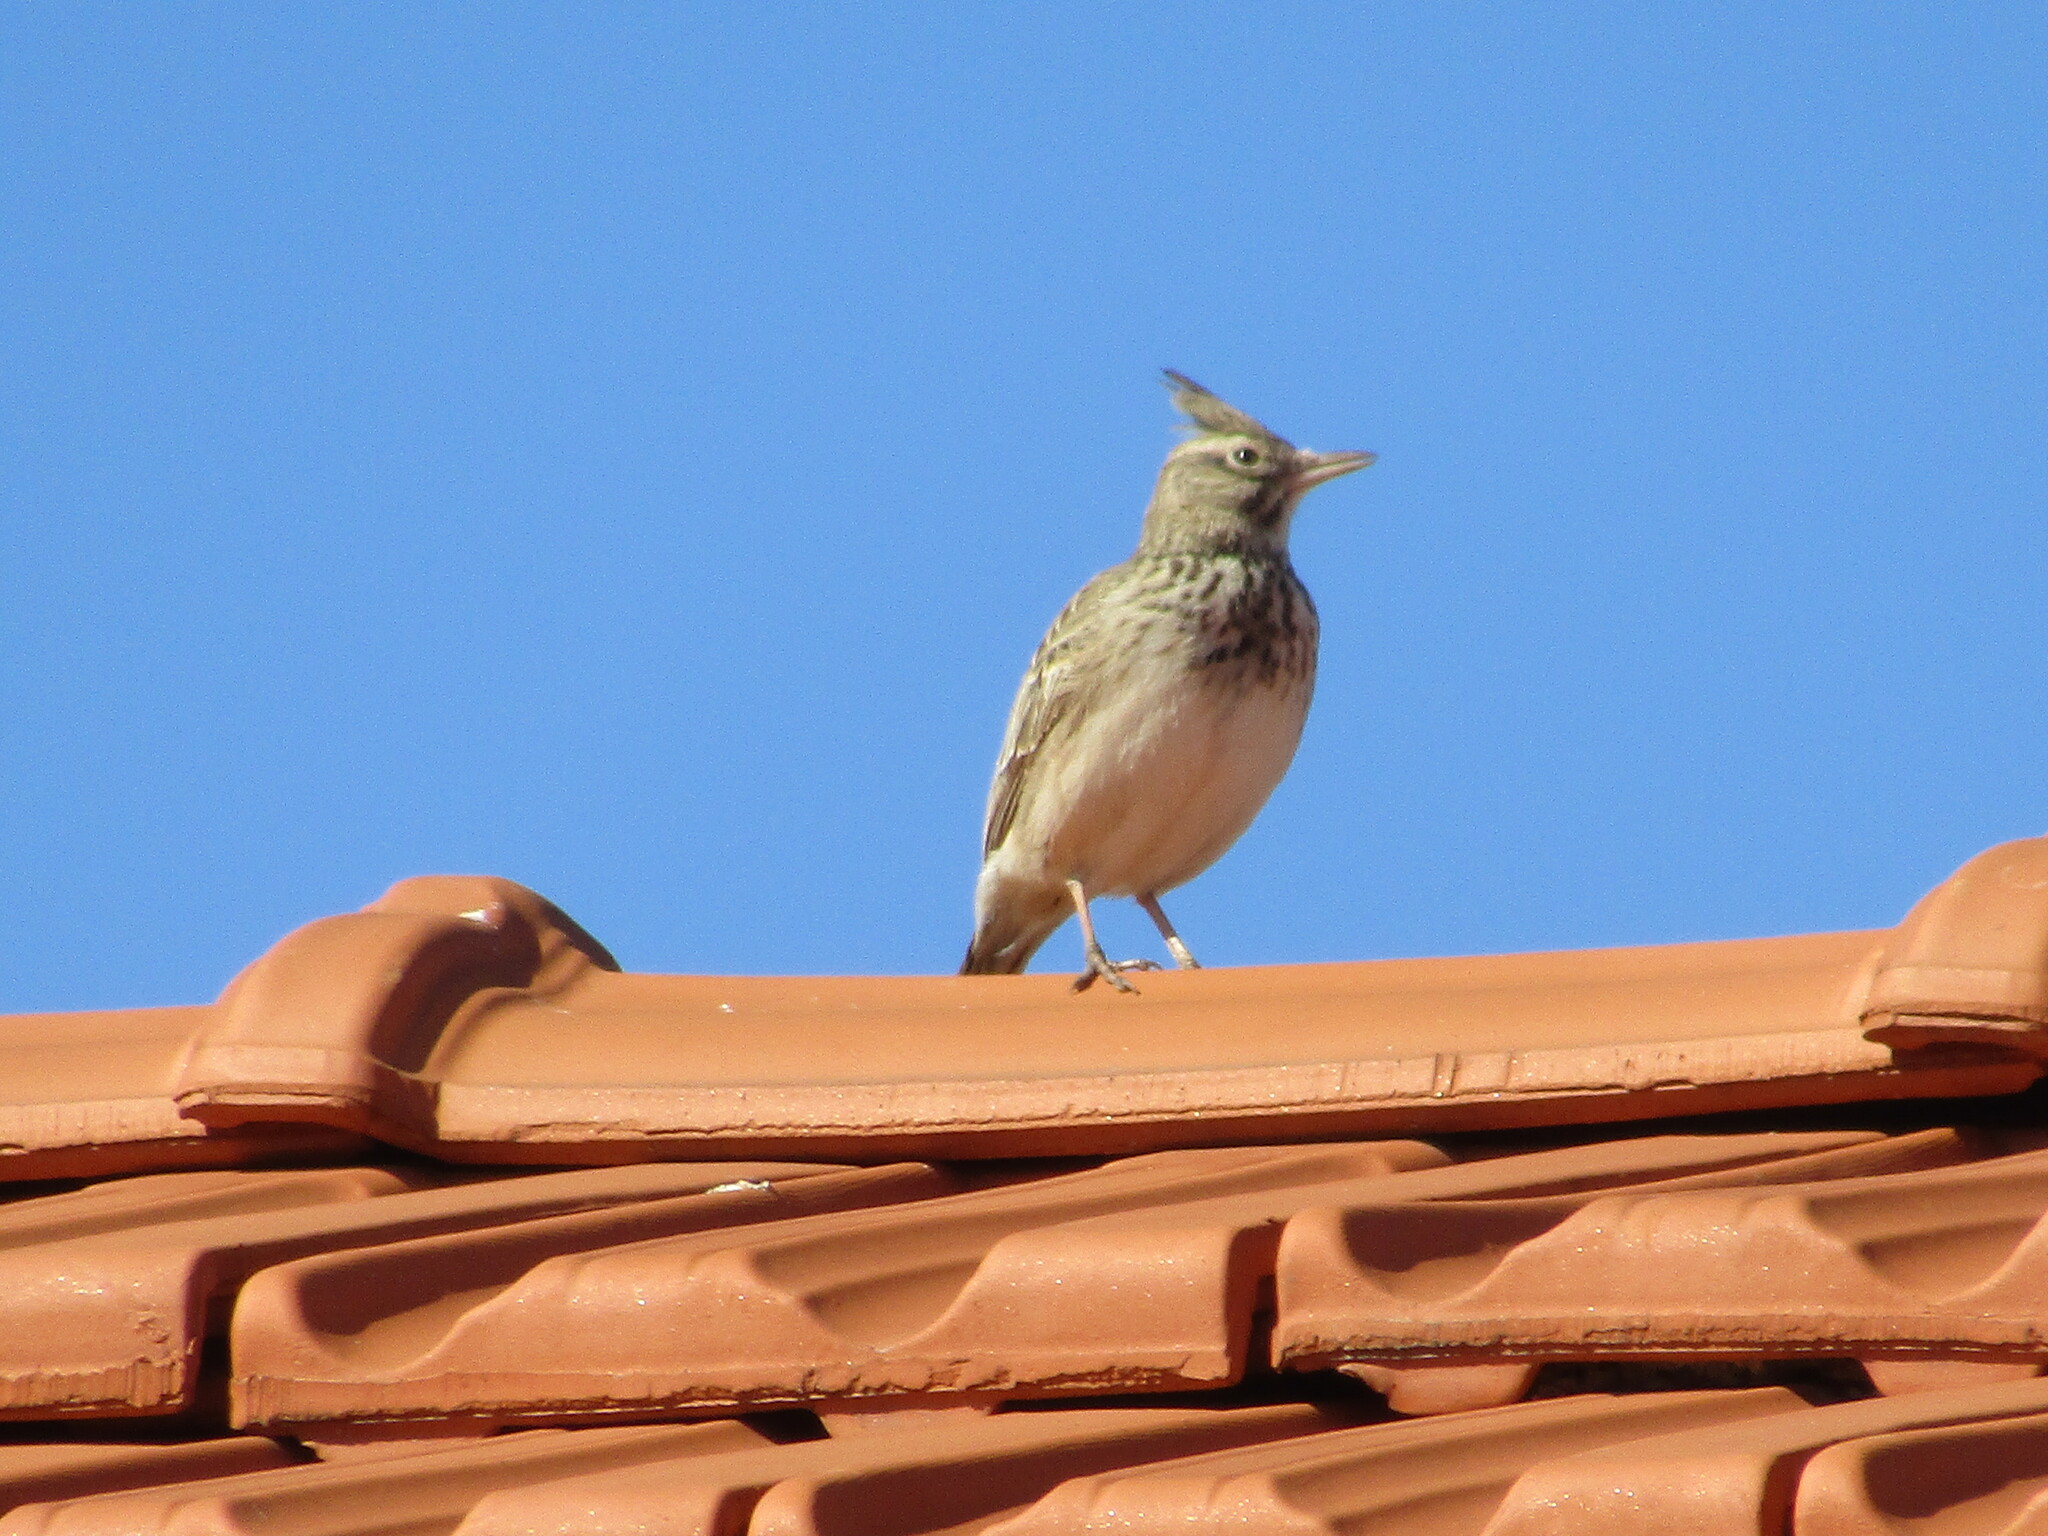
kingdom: Animalia
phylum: Chordata
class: Aves
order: Passeriformes
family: Alaudidae
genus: Galerida
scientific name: Galerida cristata
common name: Crested lark
